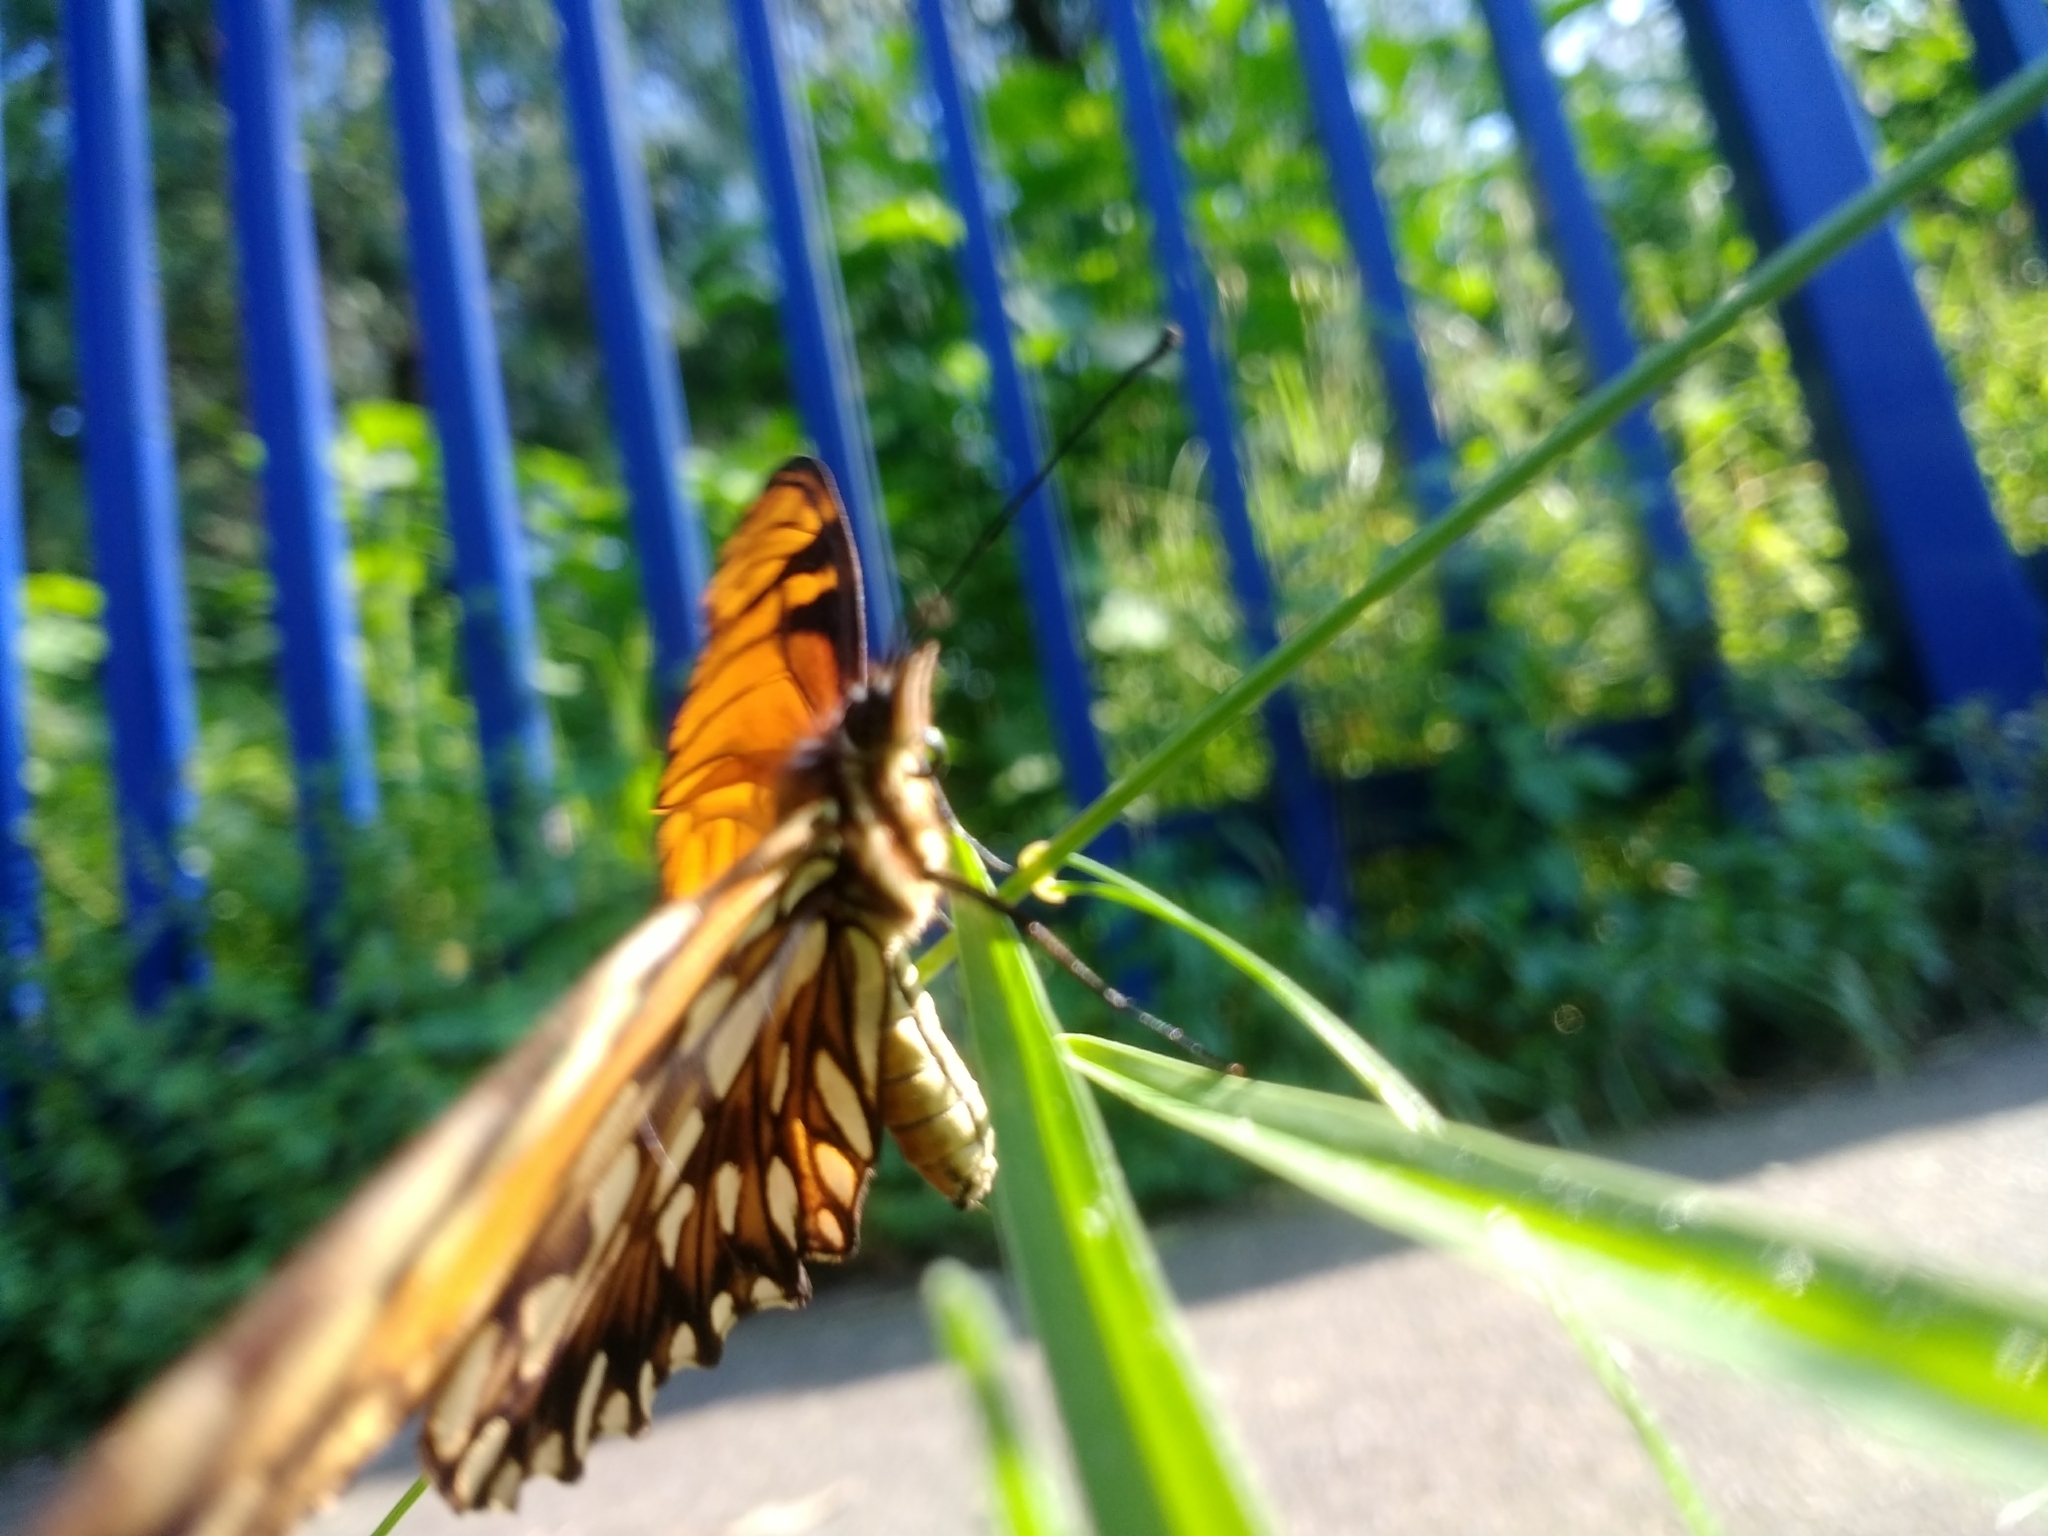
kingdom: Animalia
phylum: Arthropoda
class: Insecta
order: Lepidoptera
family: Nymphalidae
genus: Dione
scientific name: Dione juno
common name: Juno silverspot
